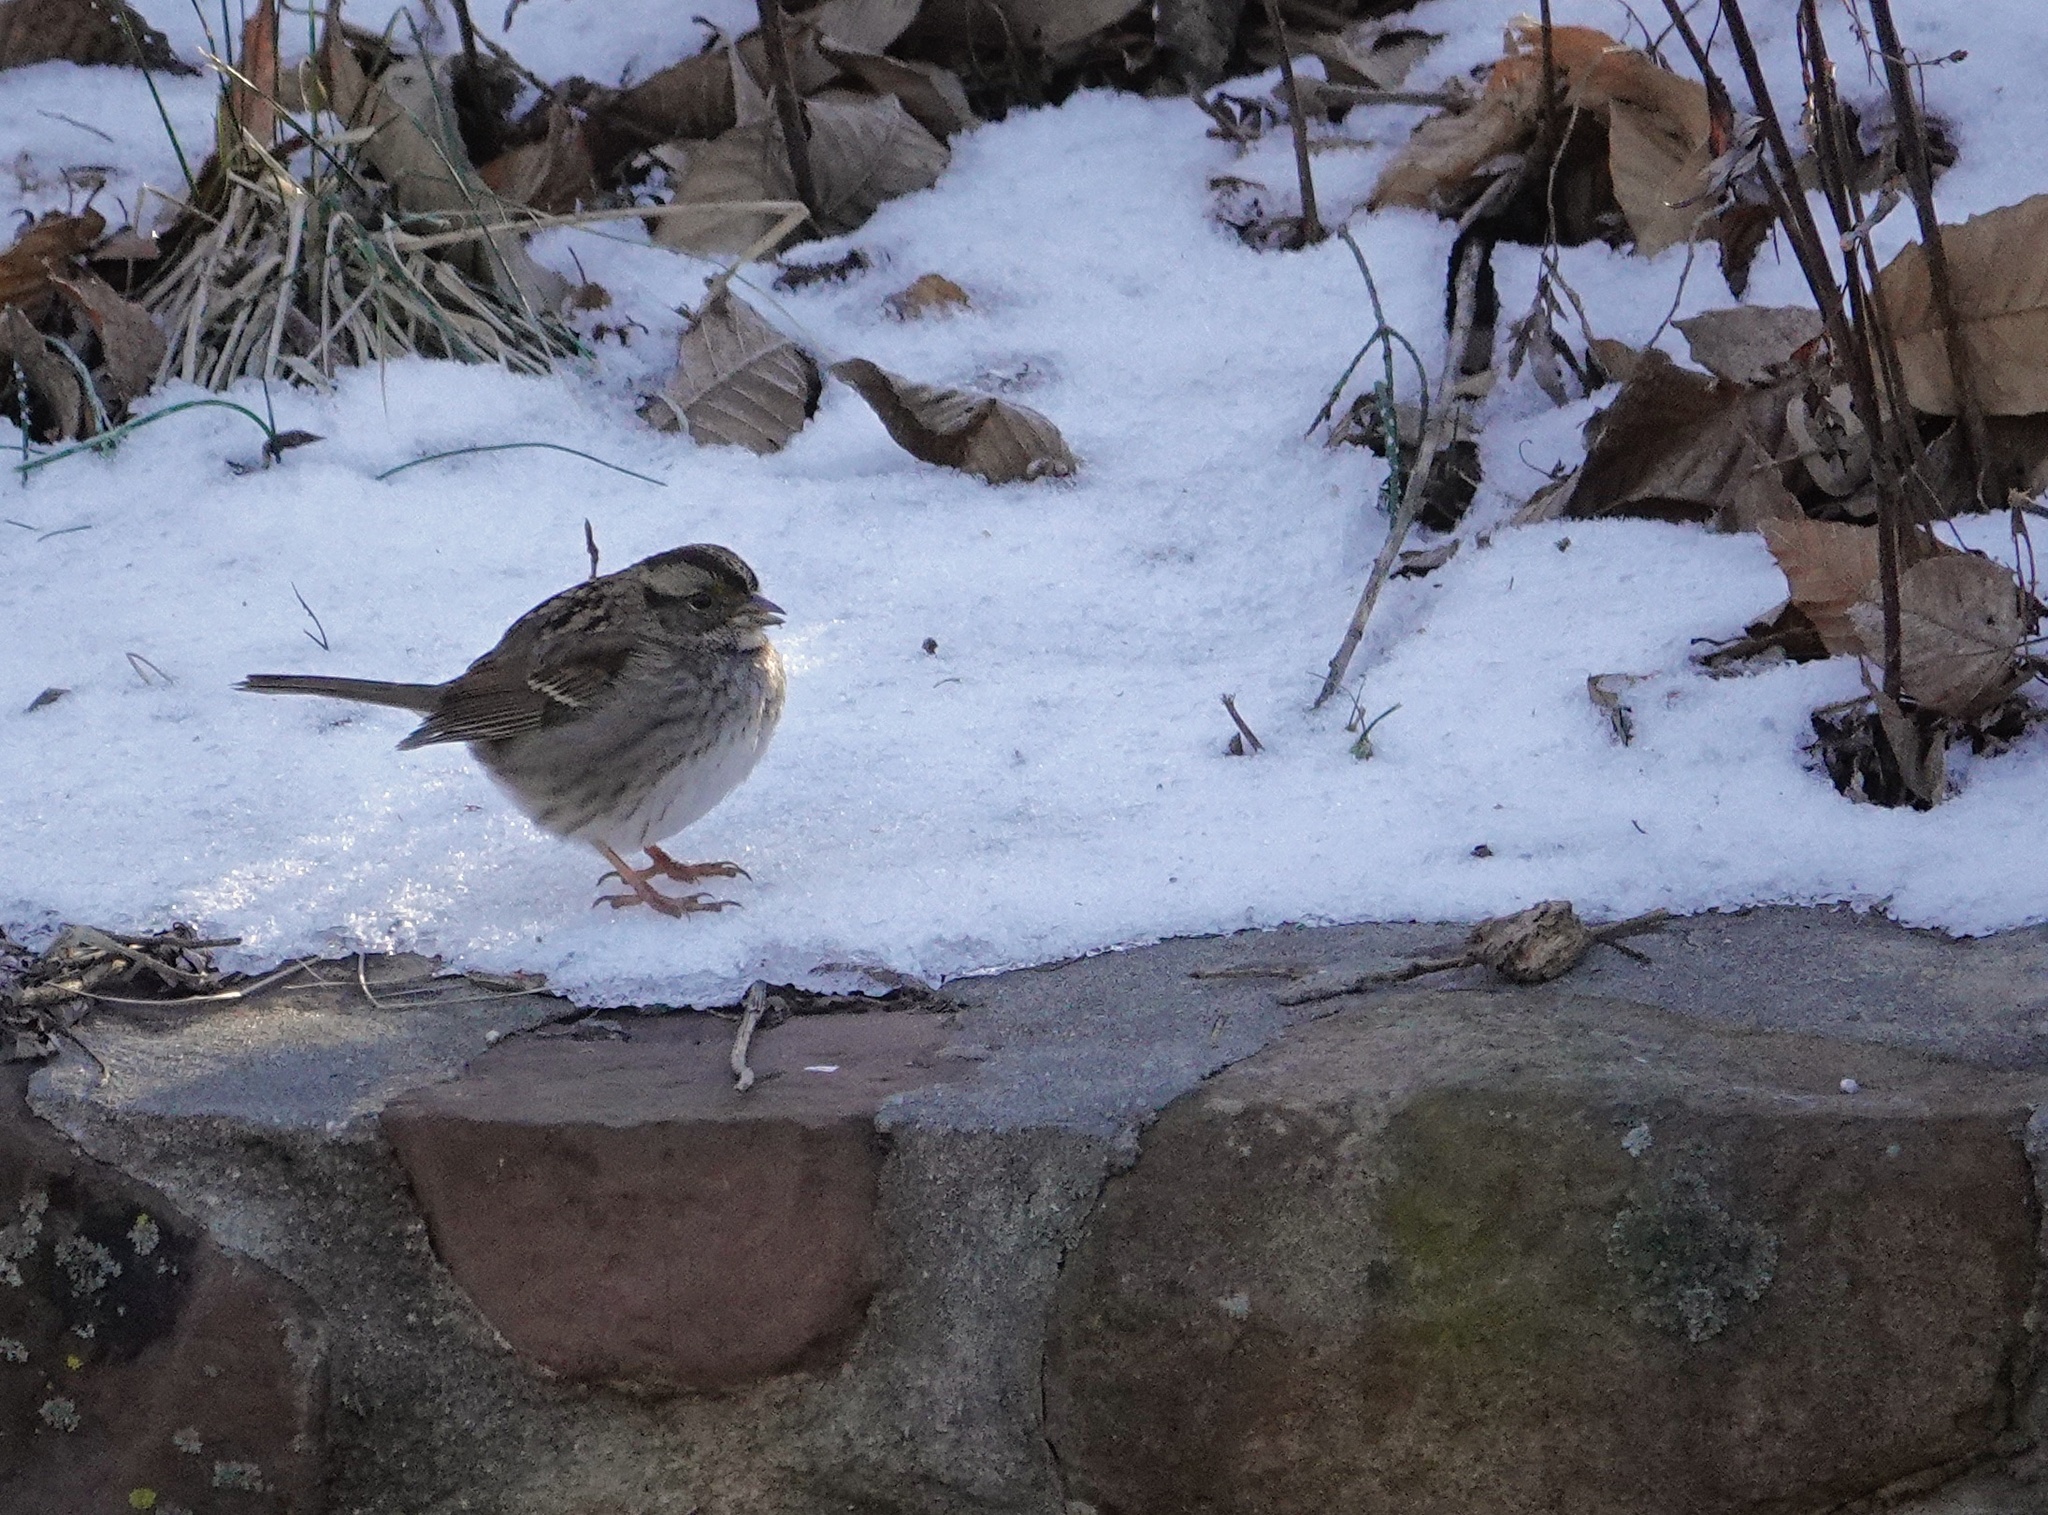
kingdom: Animalia
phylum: Chordata
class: Aves
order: Passeriformes
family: Passerellidae
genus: Zonotrichia
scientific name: Zonotrichia albicollis
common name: White-throated sparrow
